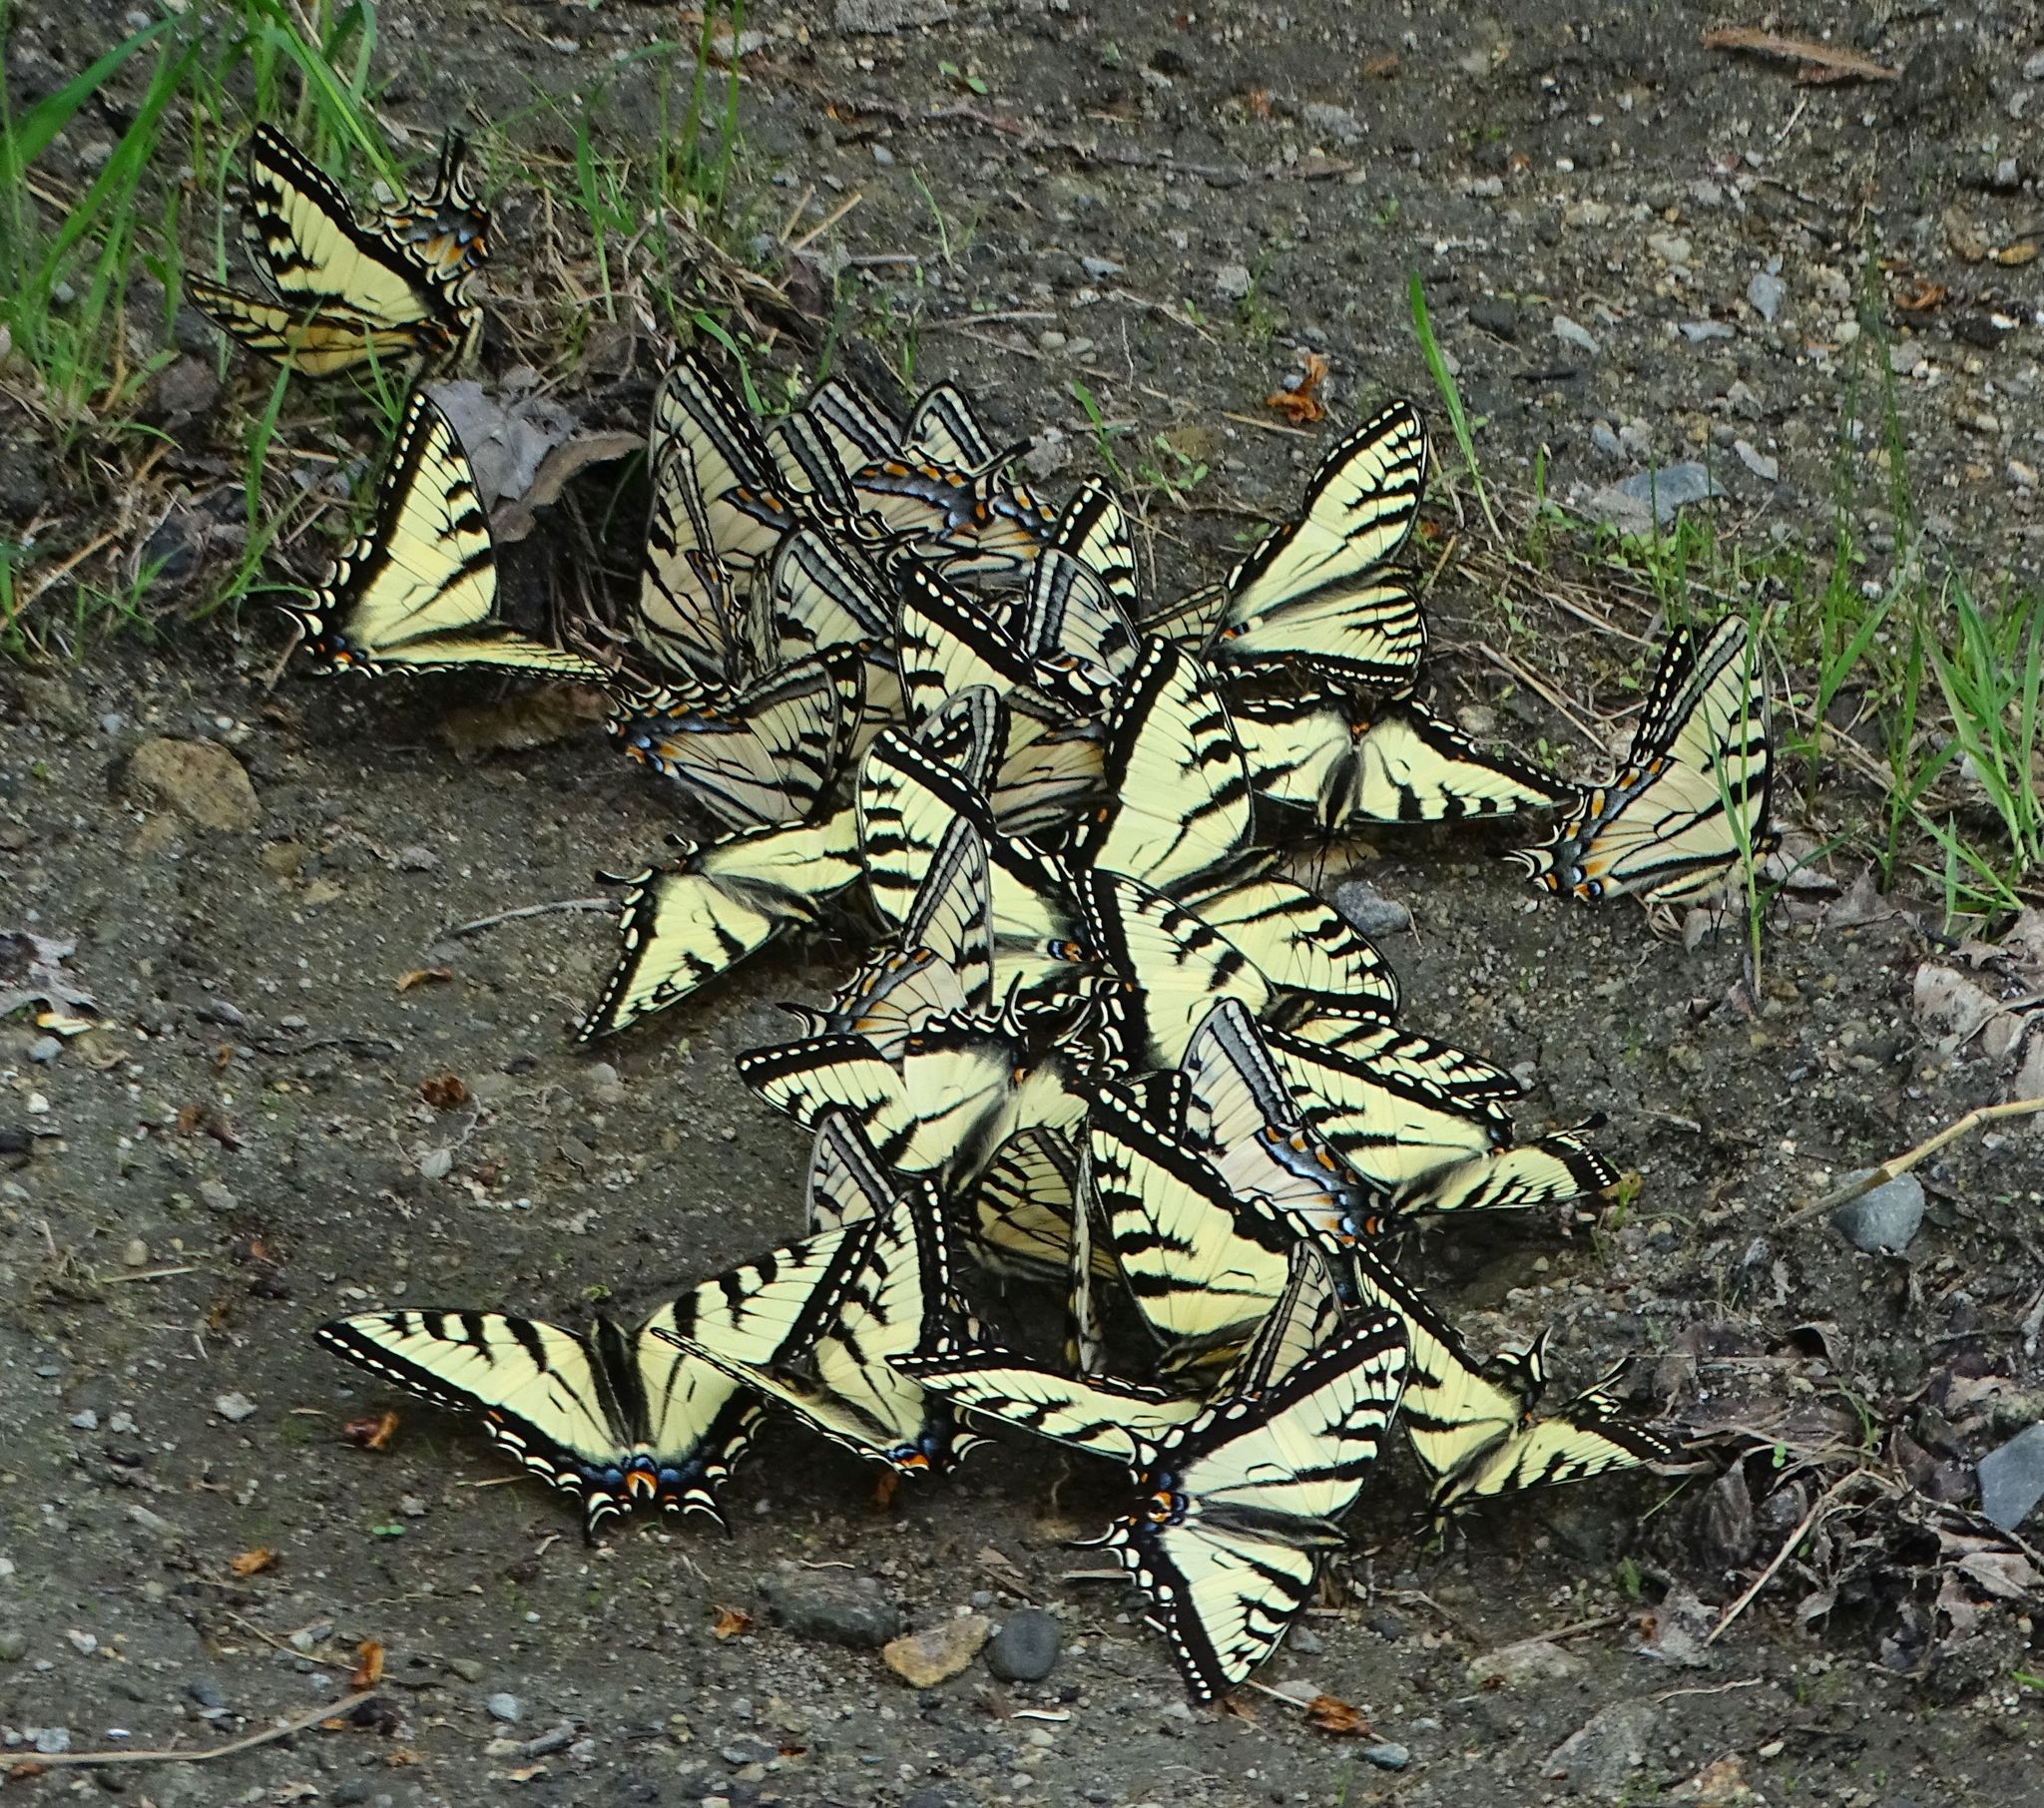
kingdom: Animalia
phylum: Arthropoda
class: Insecta
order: Lepidoptera
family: Papilionidae
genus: Papilio
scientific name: Papilio canadensis
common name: Canadian tiger swallowtail
